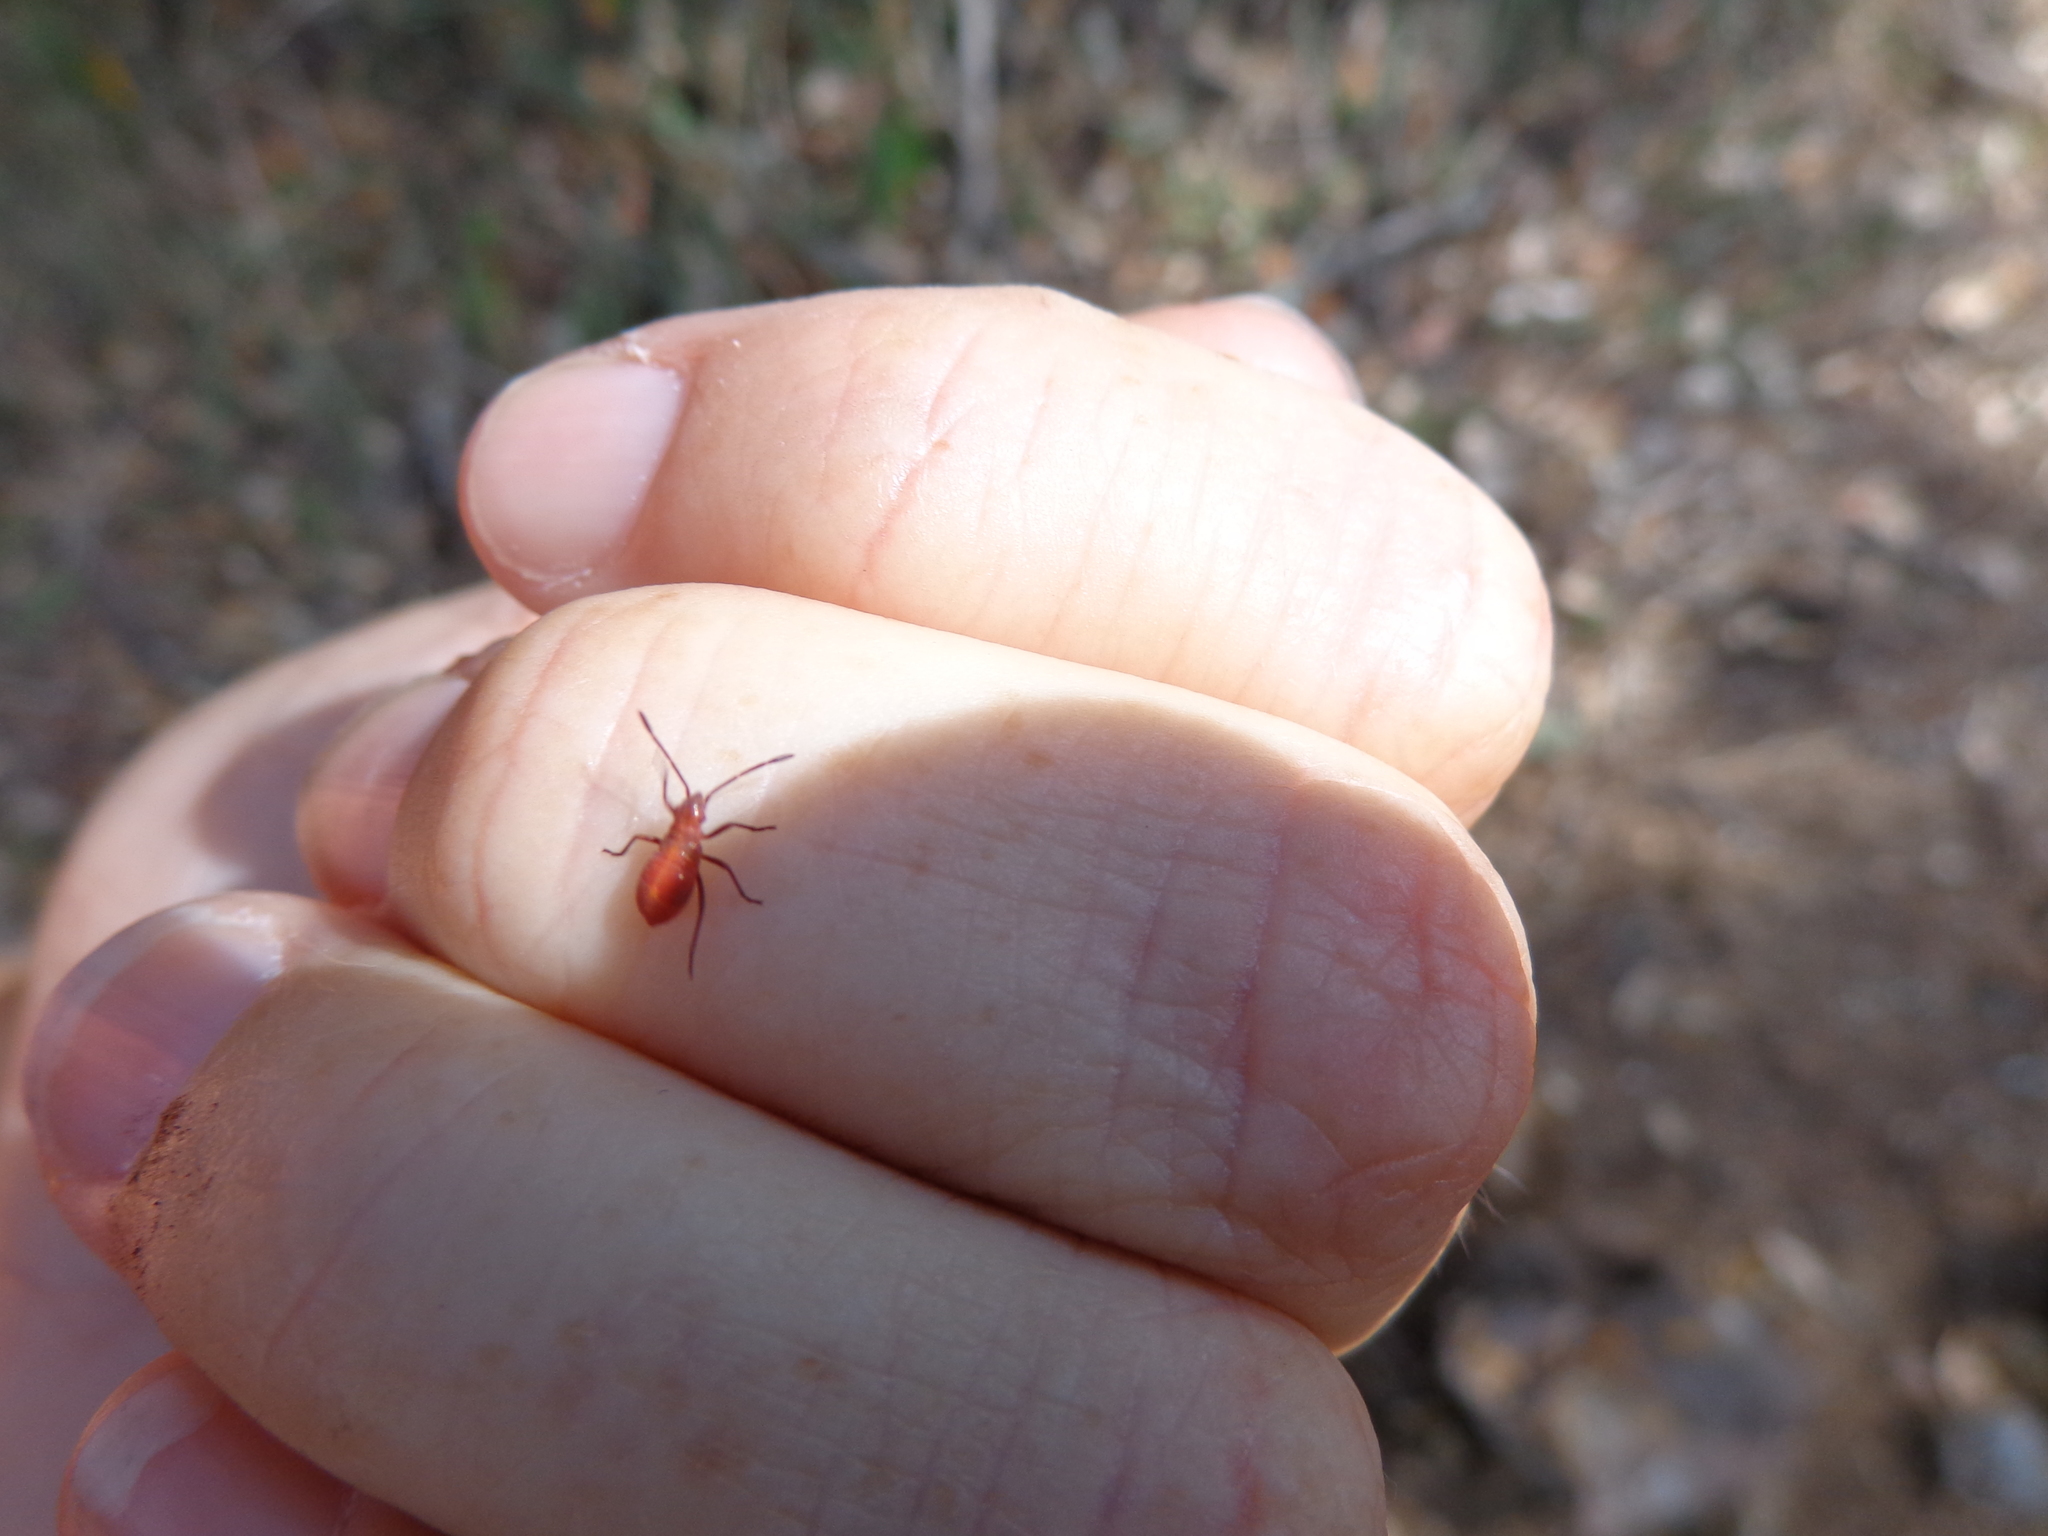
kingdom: Animalia
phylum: Arthropoda
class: Insecta
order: Hemiptera
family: Rhopalidae
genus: Boisea
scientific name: Boisea rubrolineata
